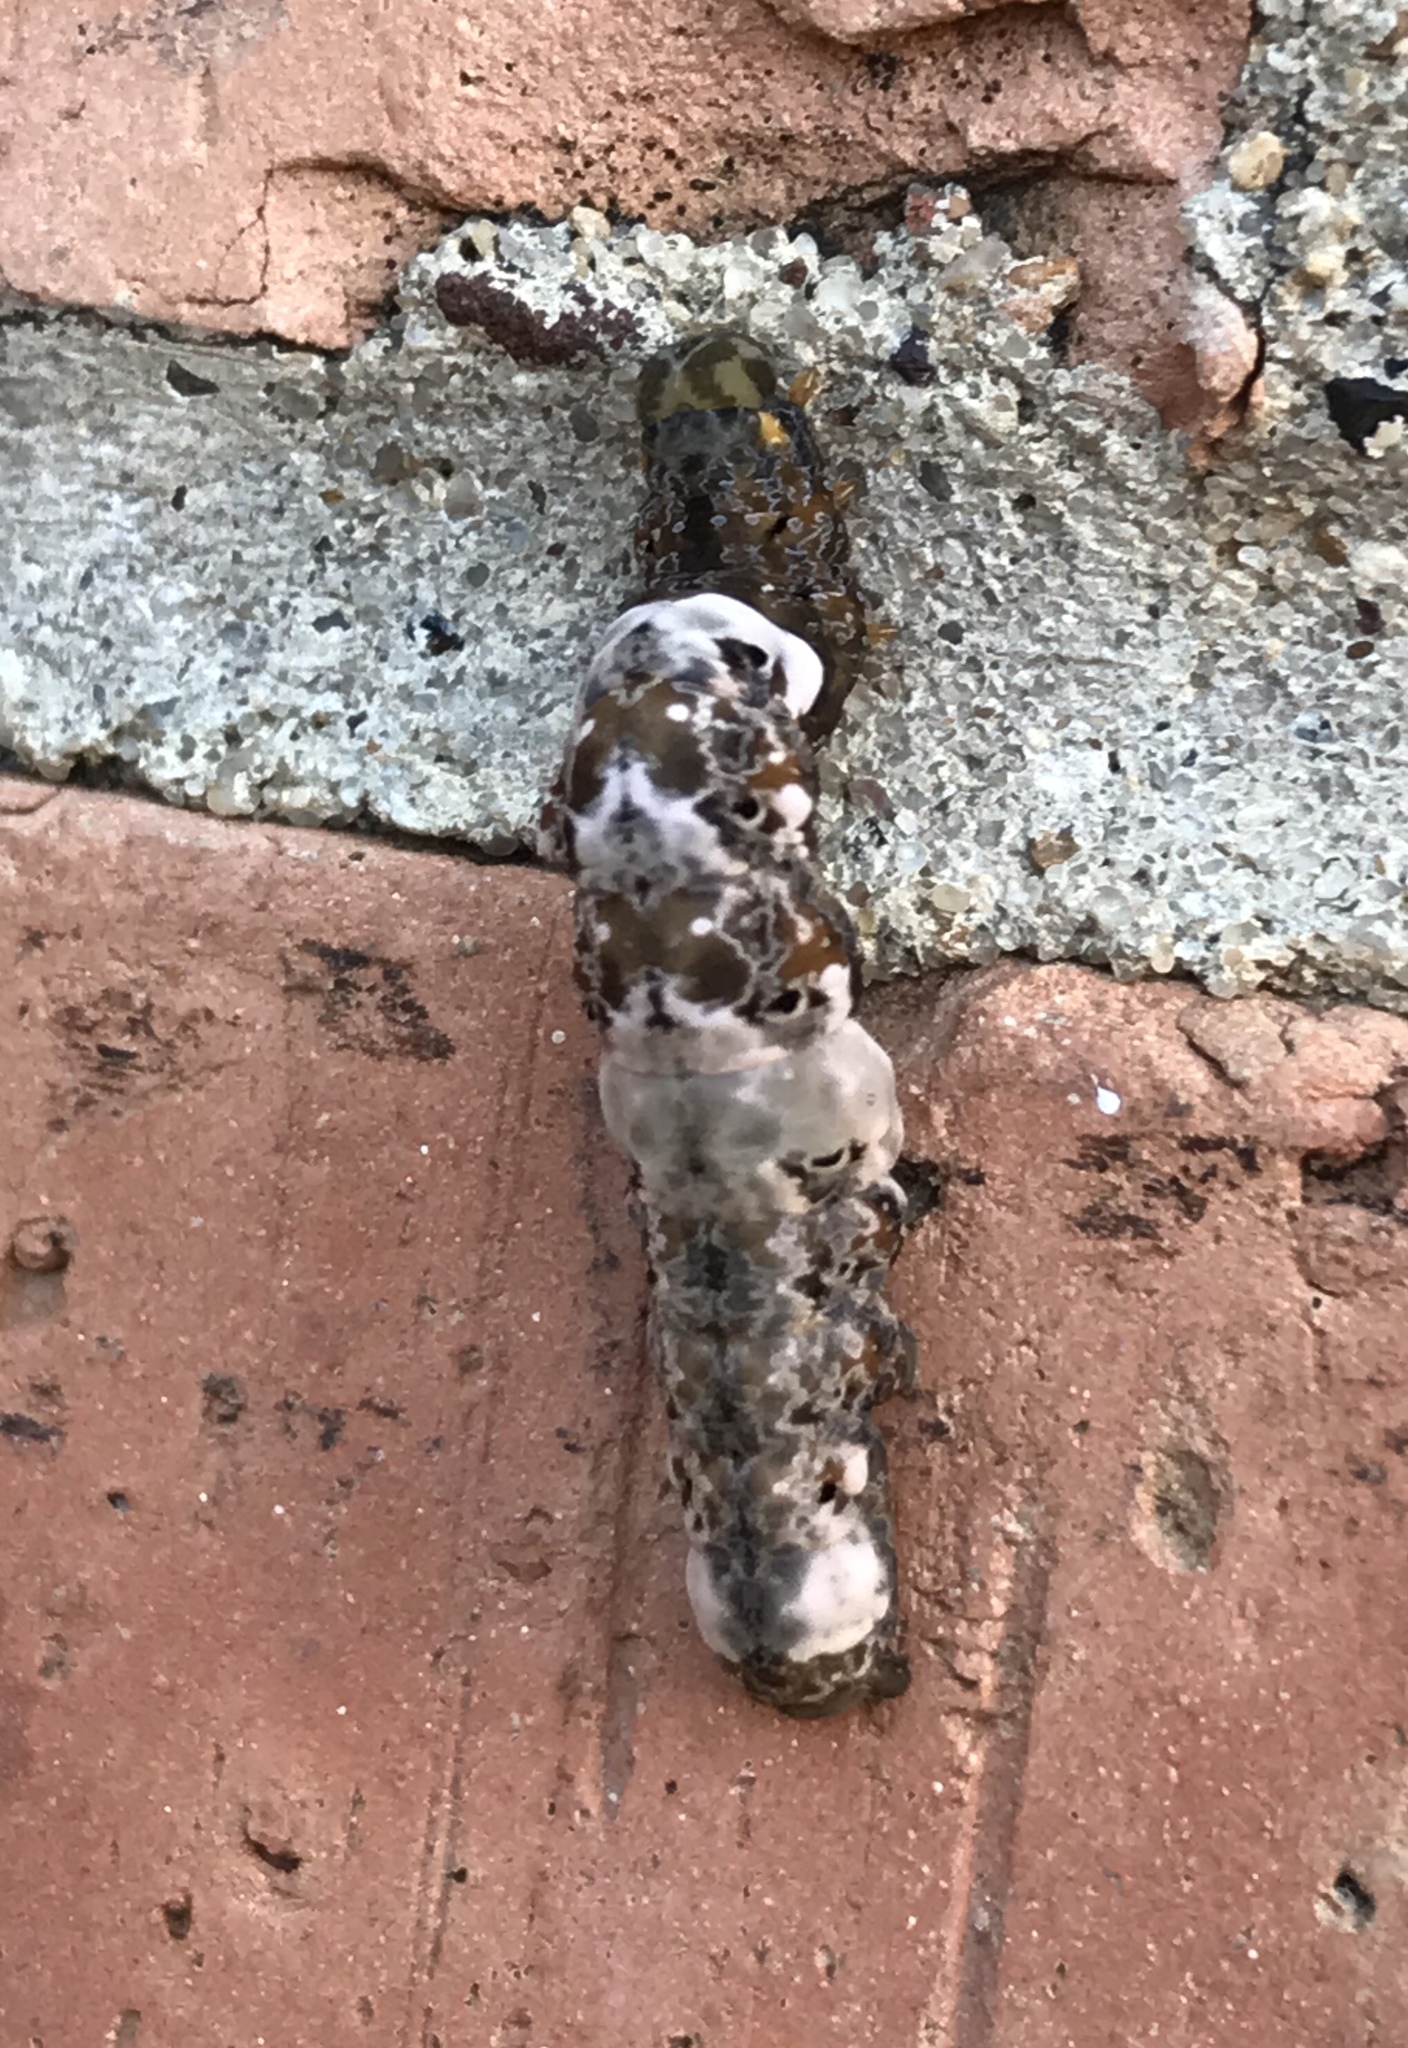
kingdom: Animalia
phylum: Arthropoda
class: Insecta
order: Lepidoptera
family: Erebidae
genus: Plusiodonta
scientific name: Plusiodonta compressipalpis
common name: Moonseed moth
